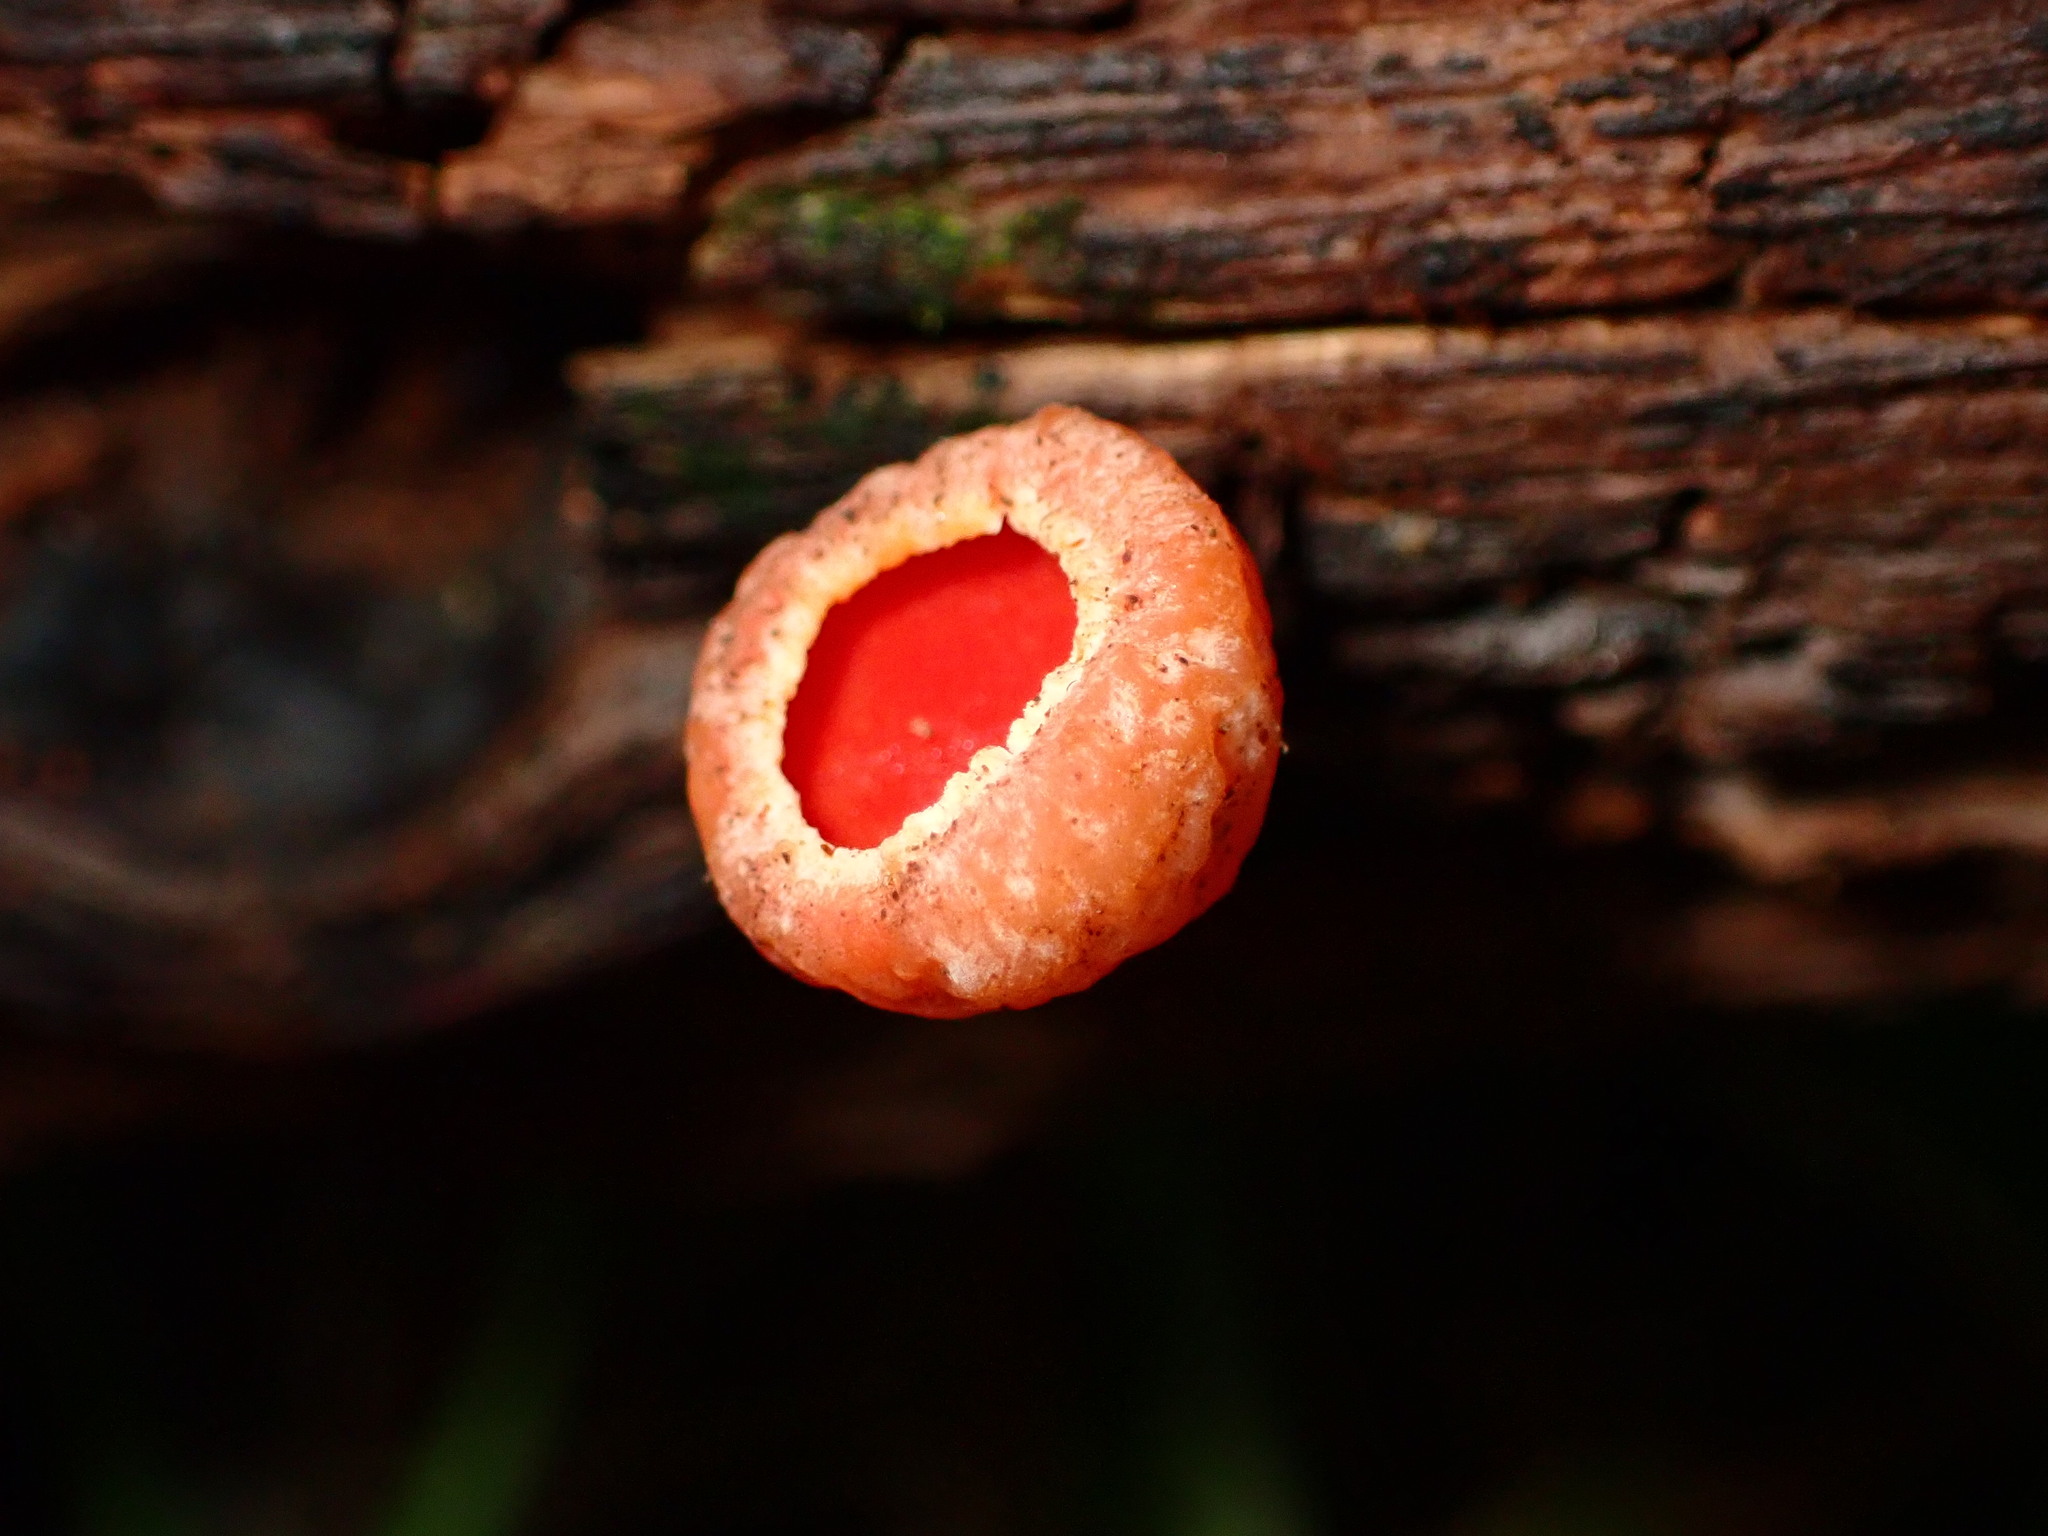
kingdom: Fungi
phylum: Ascomycota
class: Pezizomycetes
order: Pezizales
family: Sarcoscyphaceae
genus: Sarcoscypha
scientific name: Sarcoscypha coccinea
